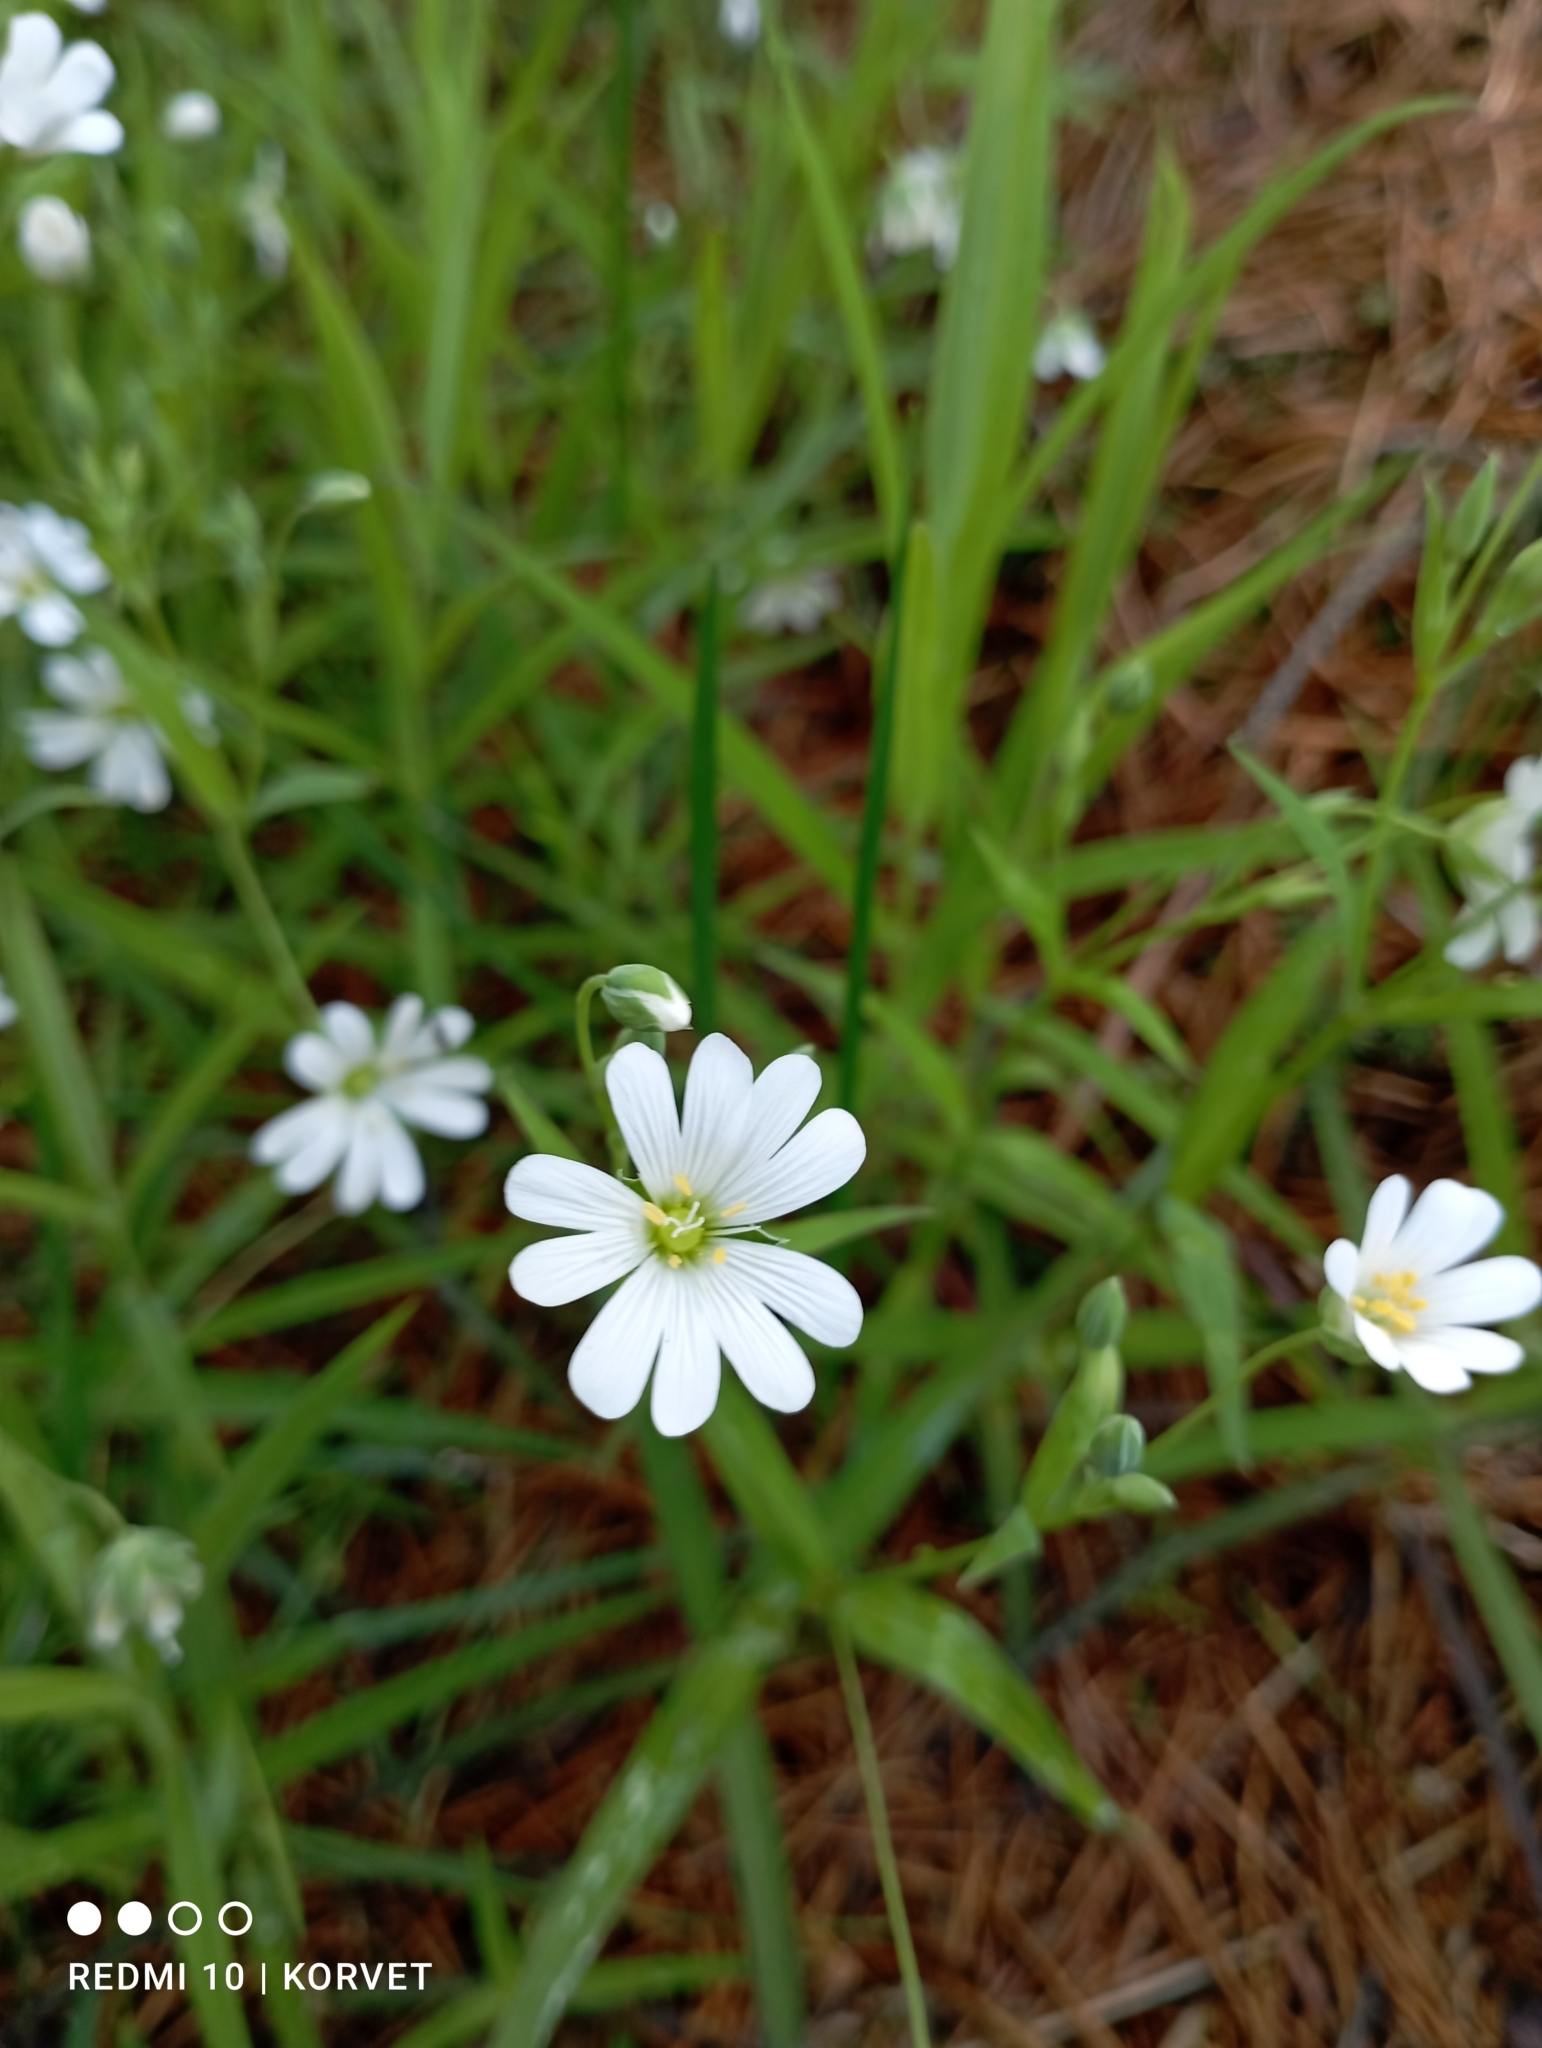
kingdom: Plantae
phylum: Tracheophyta
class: Magnoliopsida
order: Caryophyllales
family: Caryophyllaceae
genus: Rabelera
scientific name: Rabelera holostea
